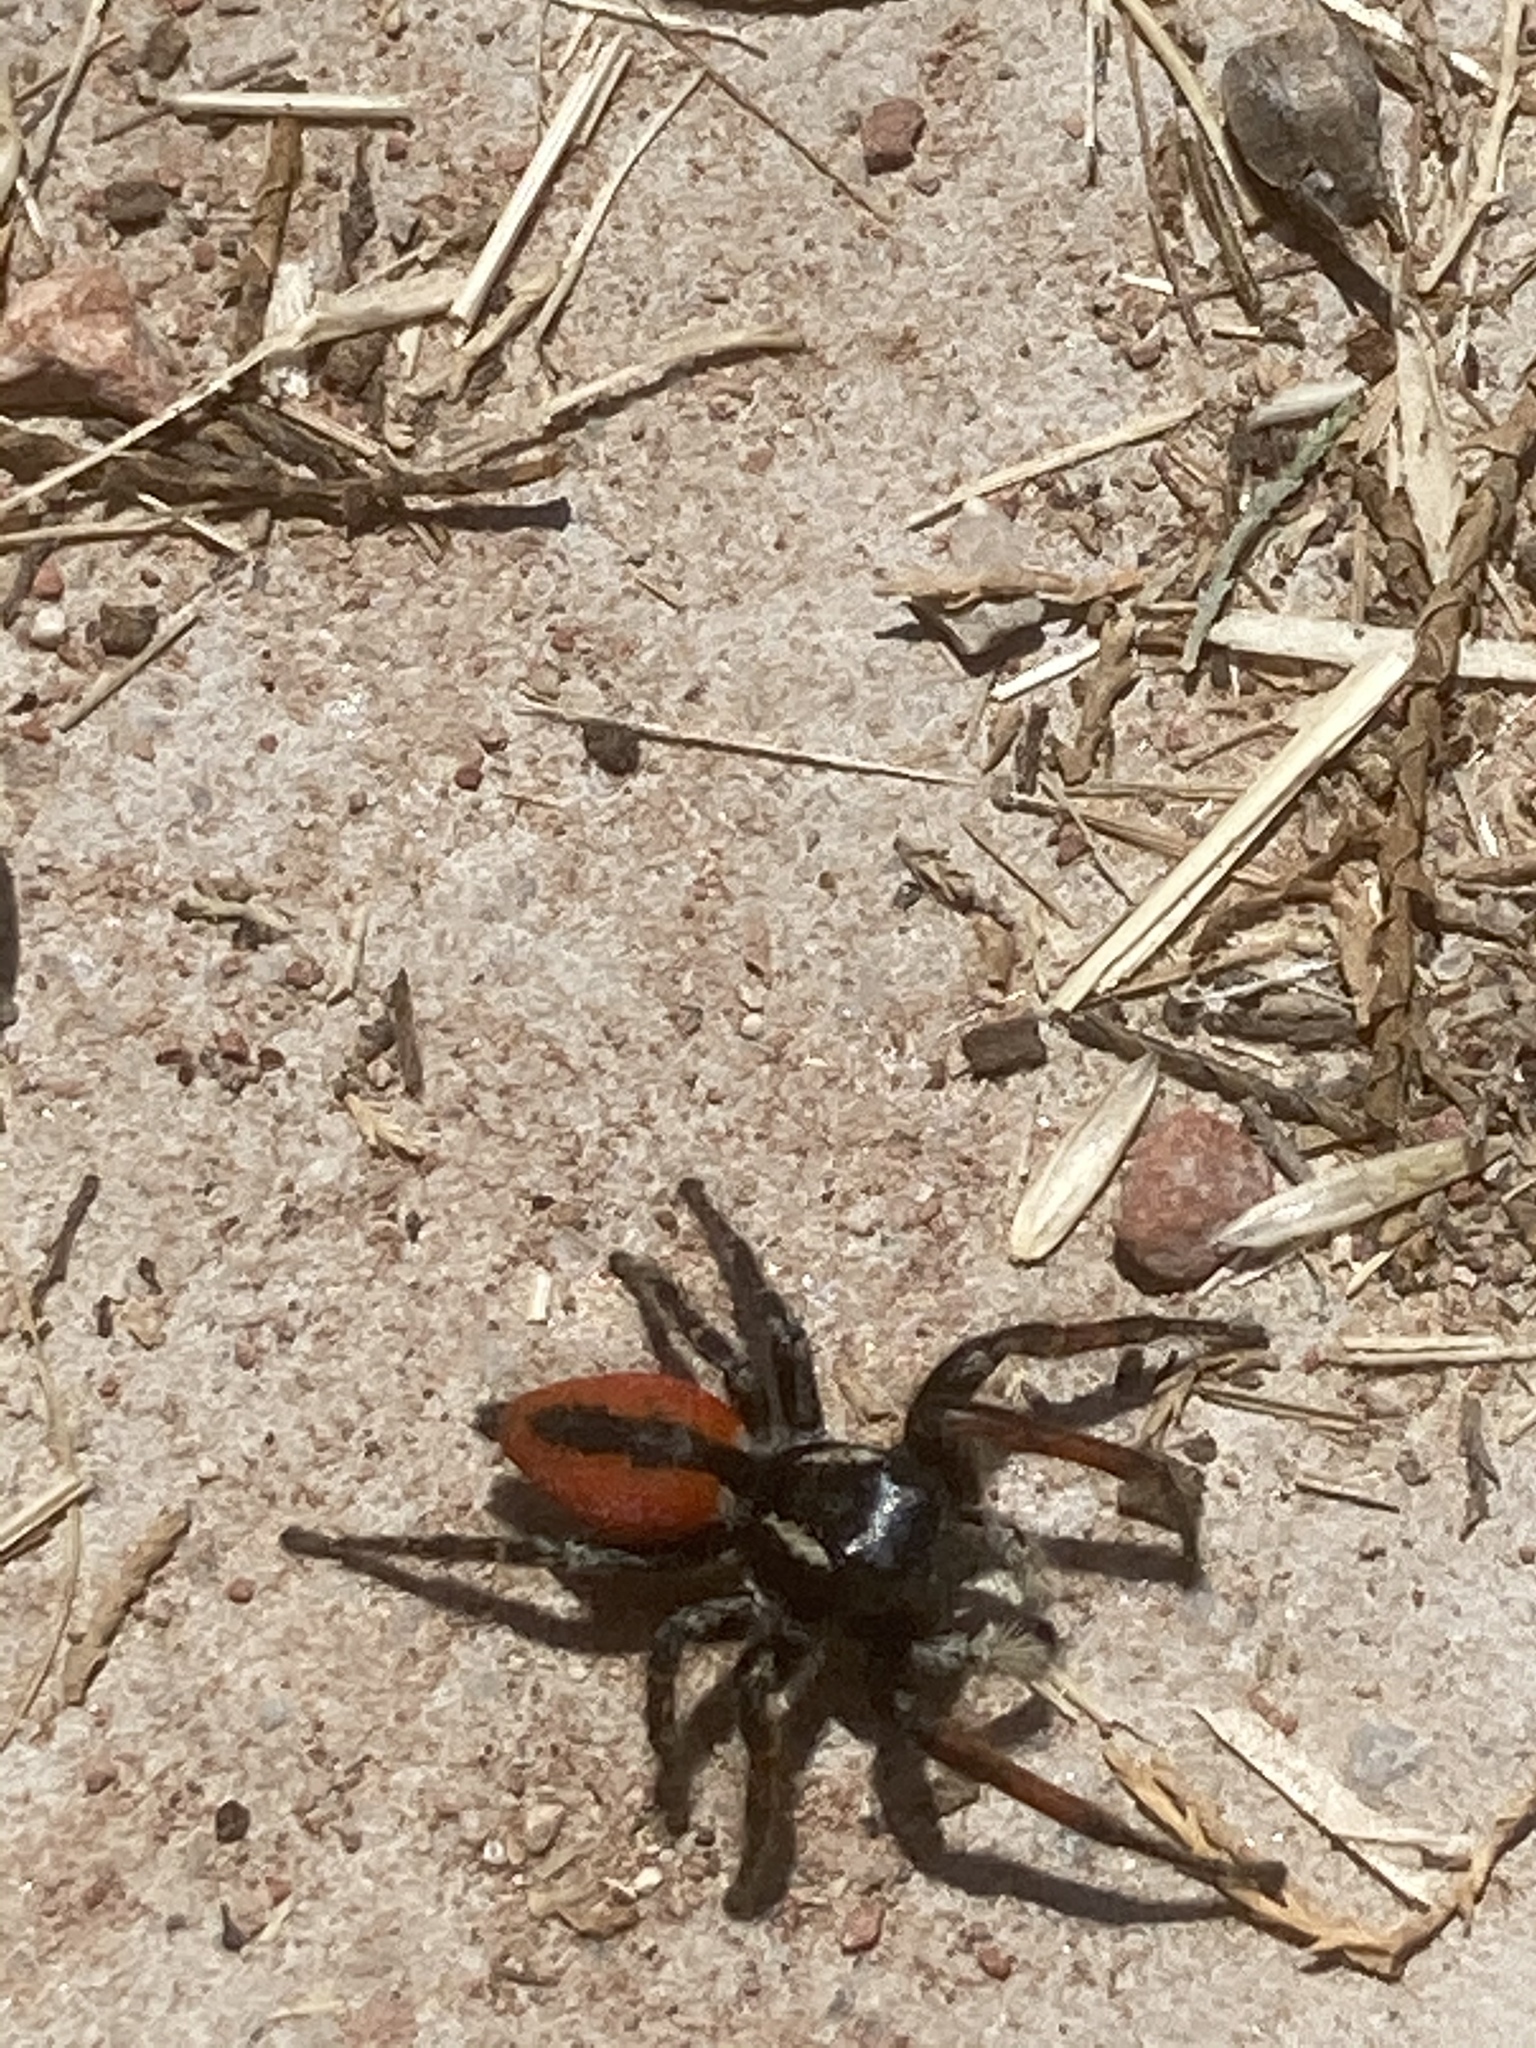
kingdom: Animalia
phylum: Arthropoda
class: Arachnida
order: Araneae
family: Salticidae
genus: Philaeus
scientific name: Philaeus chrysops
